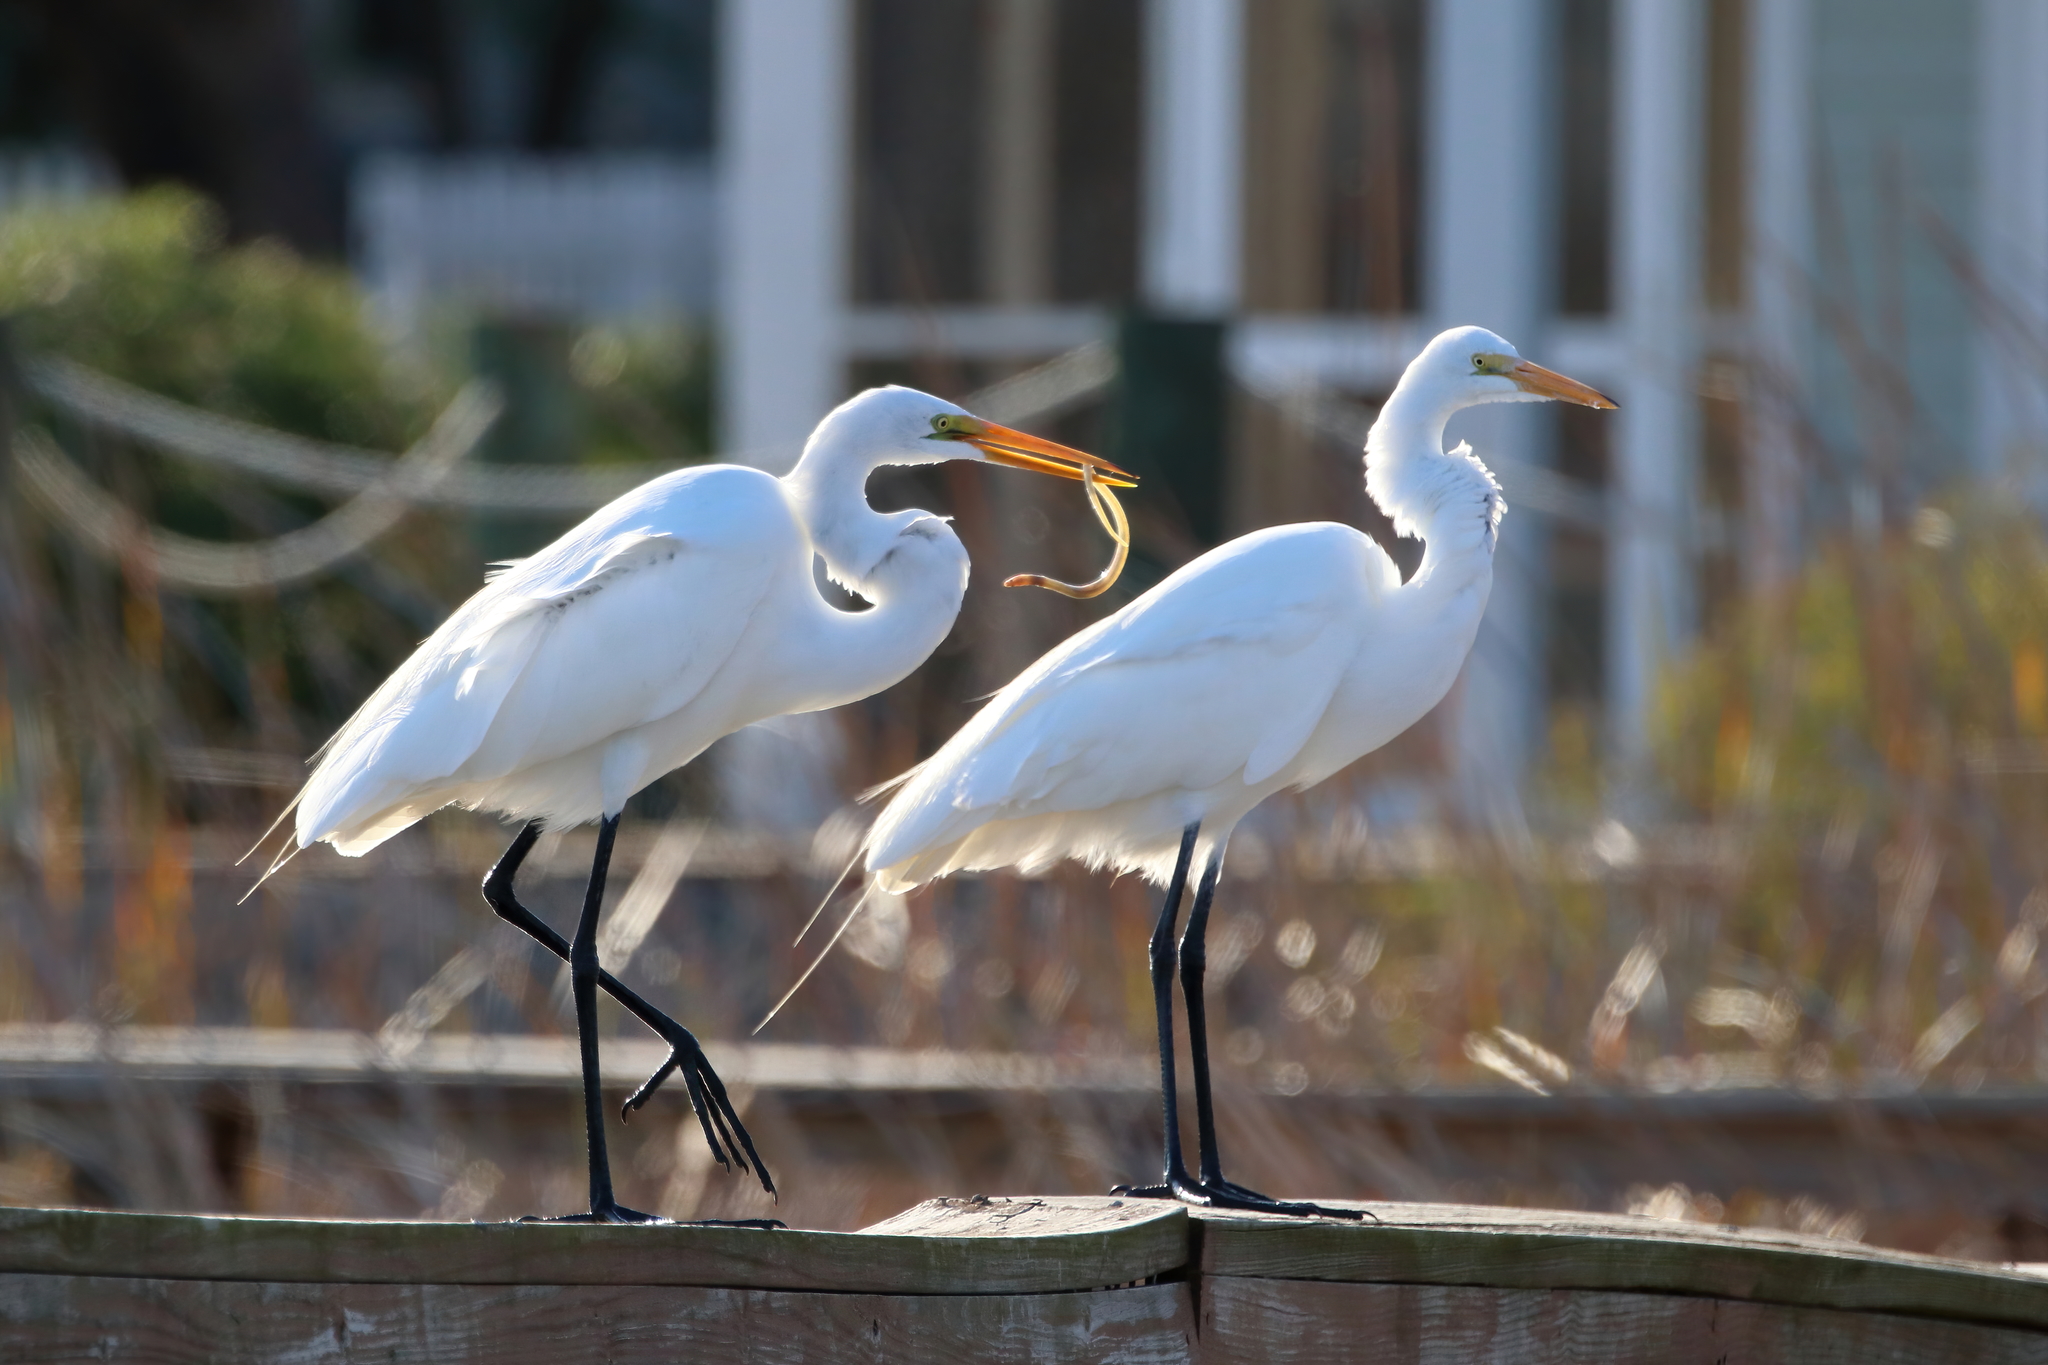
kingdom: Animalia
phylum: Chordata
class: Aves
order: Pelecaniformes
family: Ardeidae
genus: Ardea
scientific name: Ardea alba
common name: Great egret
